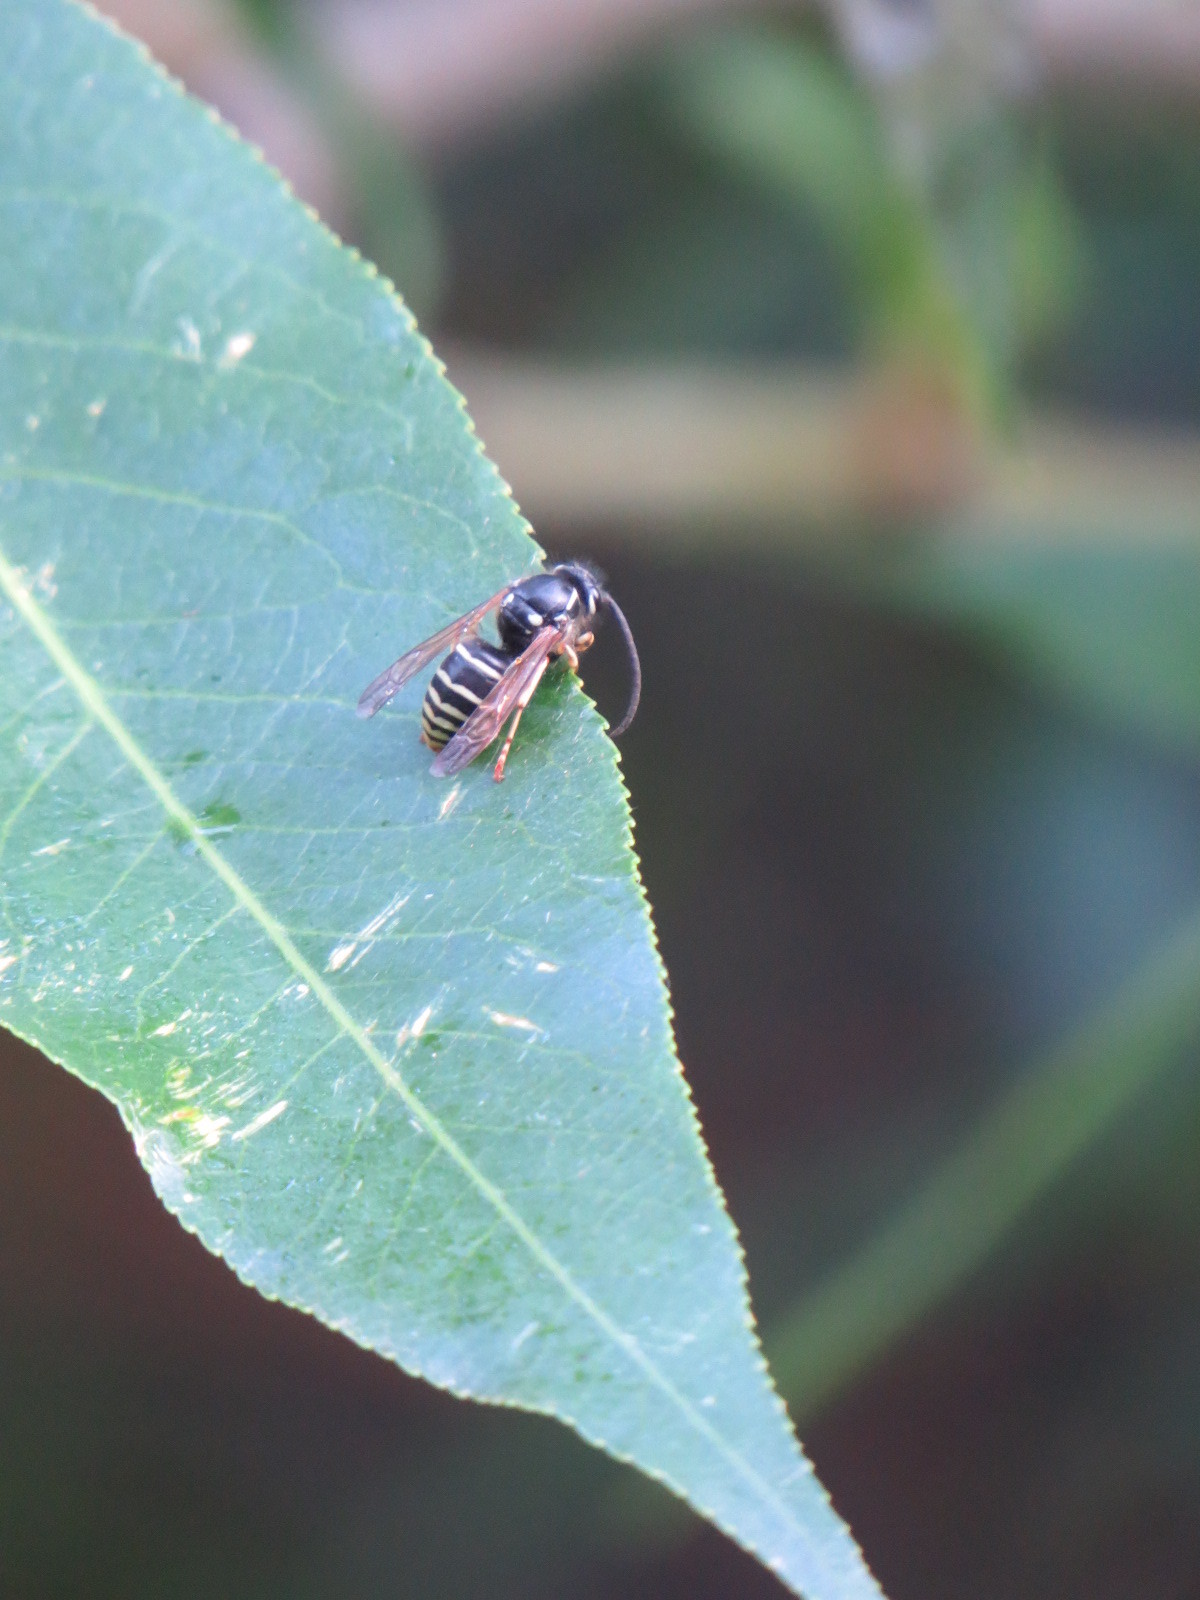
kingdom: Animalia
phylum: Arthropoda
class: Insecta
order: Hymenoptera
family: Vespidae
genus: Dolichovespula
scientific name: Dolichovespula
